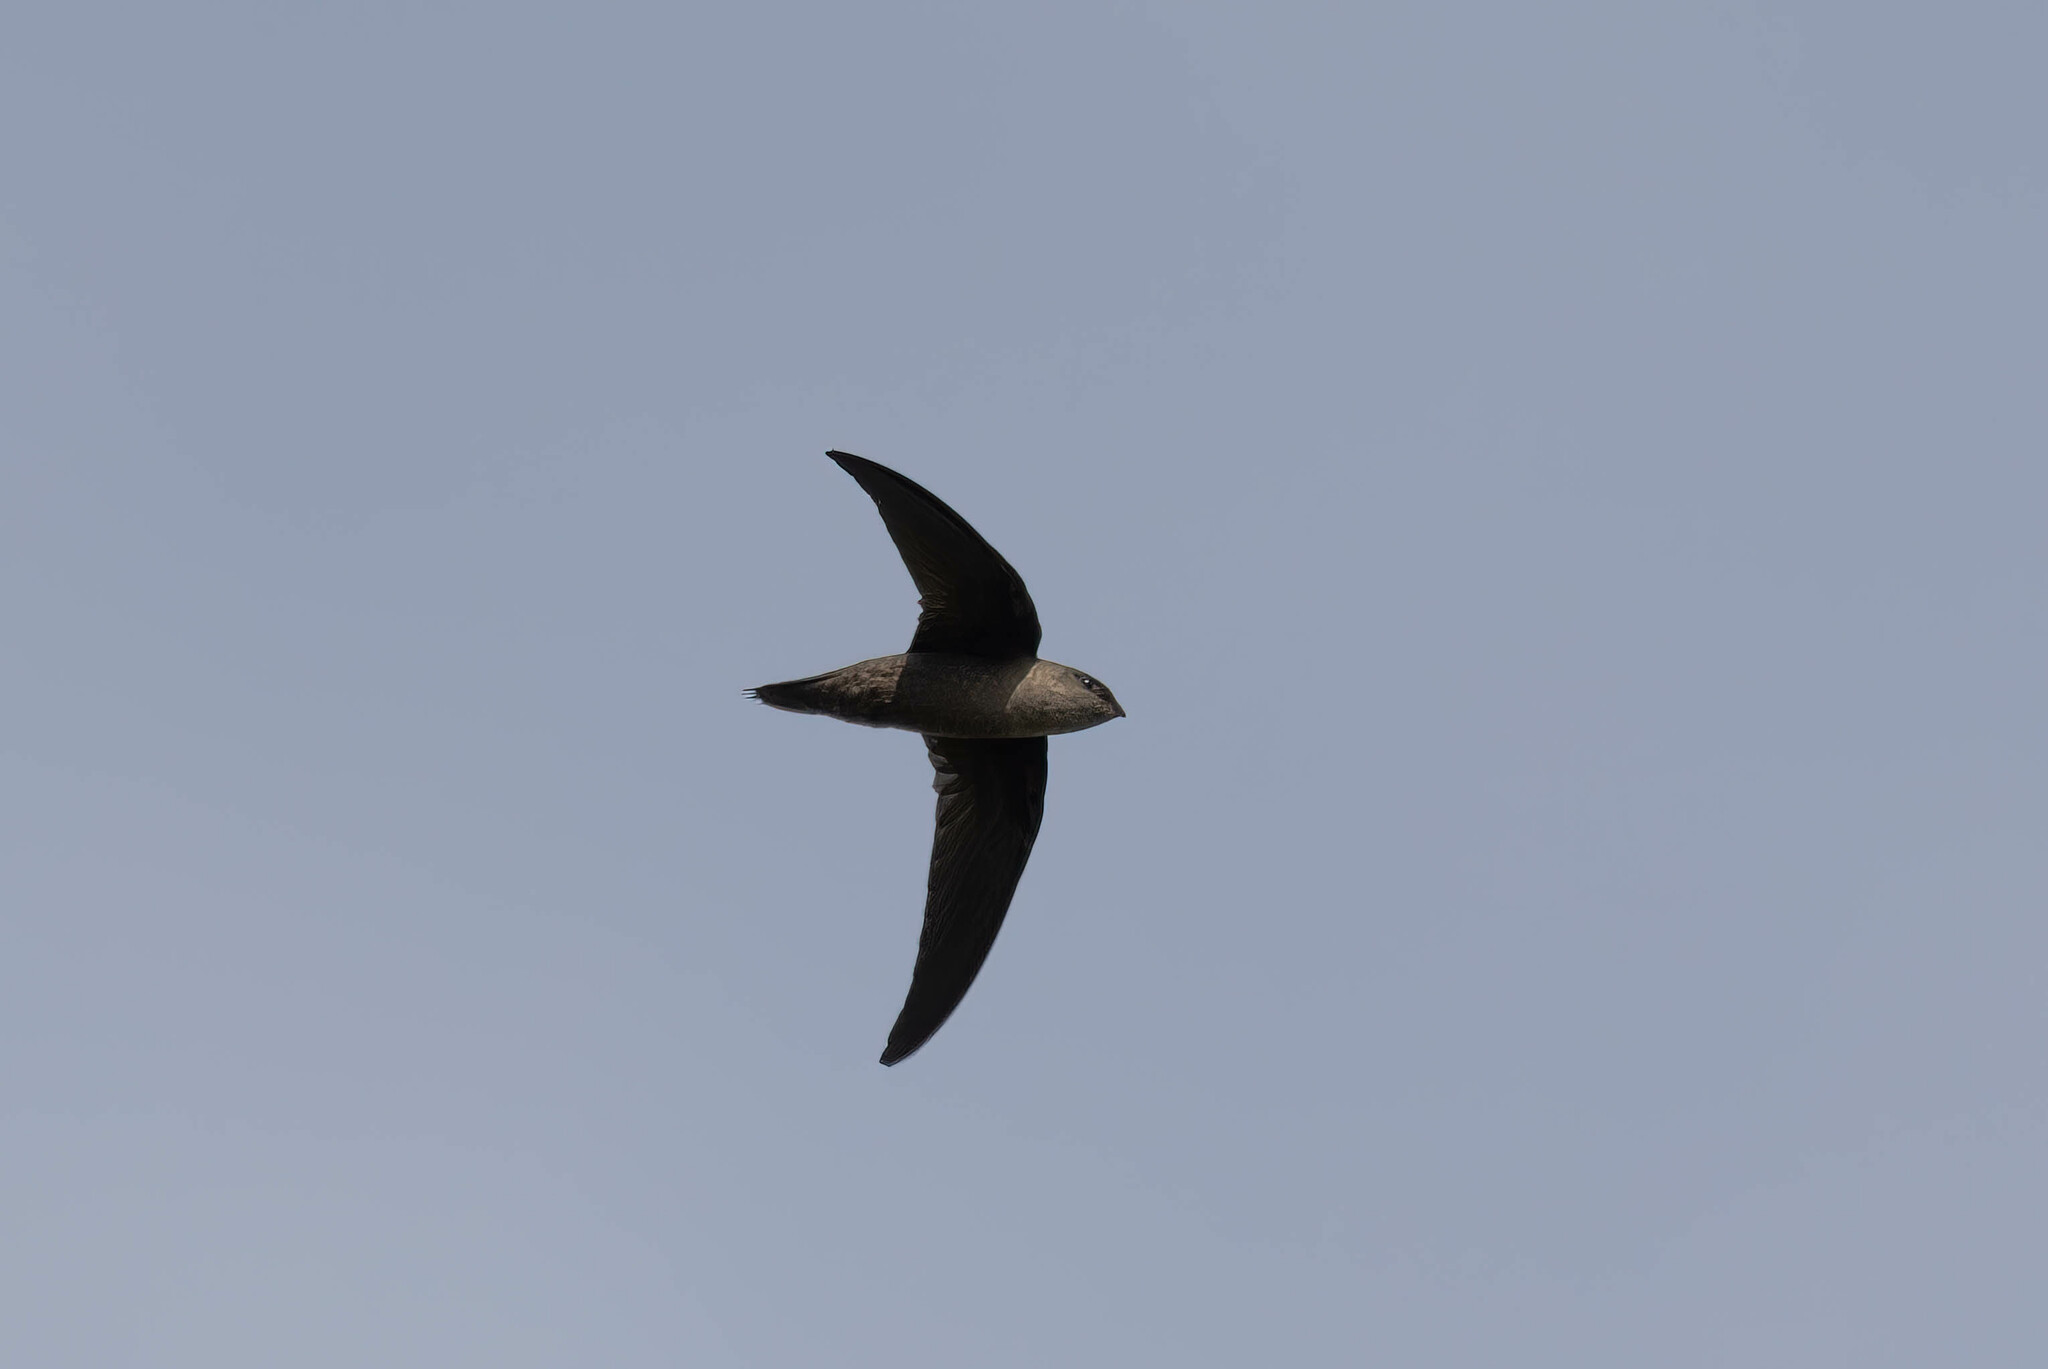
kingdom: Animalia
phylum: Chordata
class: Aves
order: Apodiformes
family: Apodidae
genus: Chaetura
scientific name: Chaetura pelagica
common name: Chimney swift
